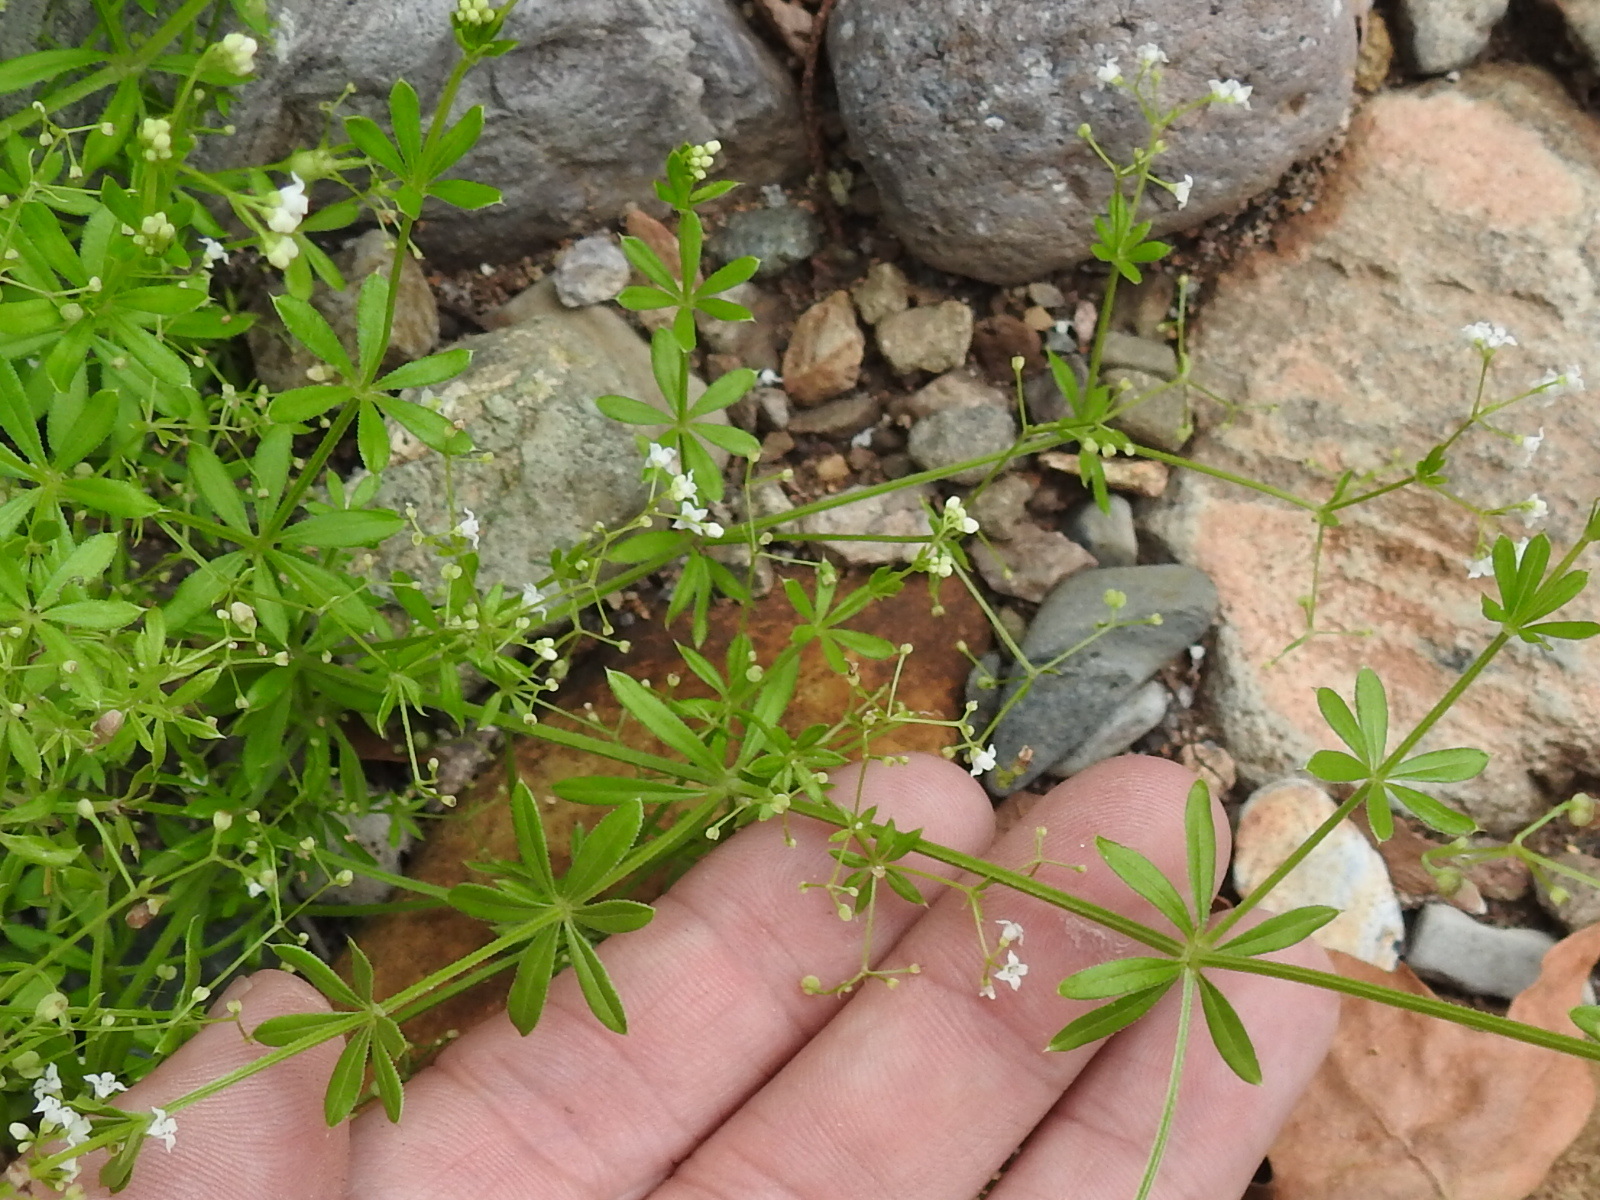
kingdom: Plantae
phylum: Tracheophyta
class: Magnoliopsida
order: Gentianales
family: Rubiaceae
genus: Galium
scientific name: Galium mexicanum
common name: Mexican bedstraw
